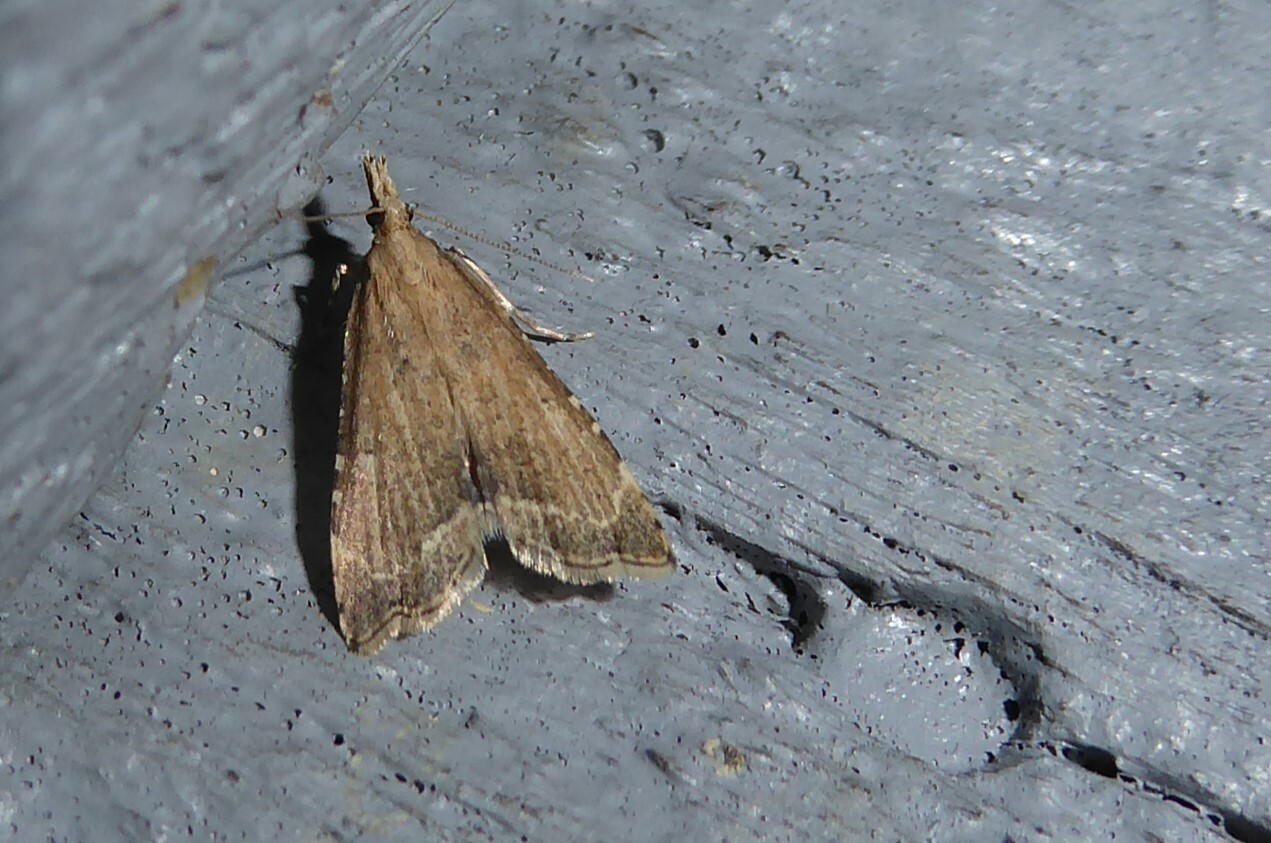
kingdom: Animalia
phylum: Arthropoda
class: Insecta
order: Lepidoptera
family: Crambidae
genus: Diplopseustis
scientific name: Diplopseustis perieresalis
